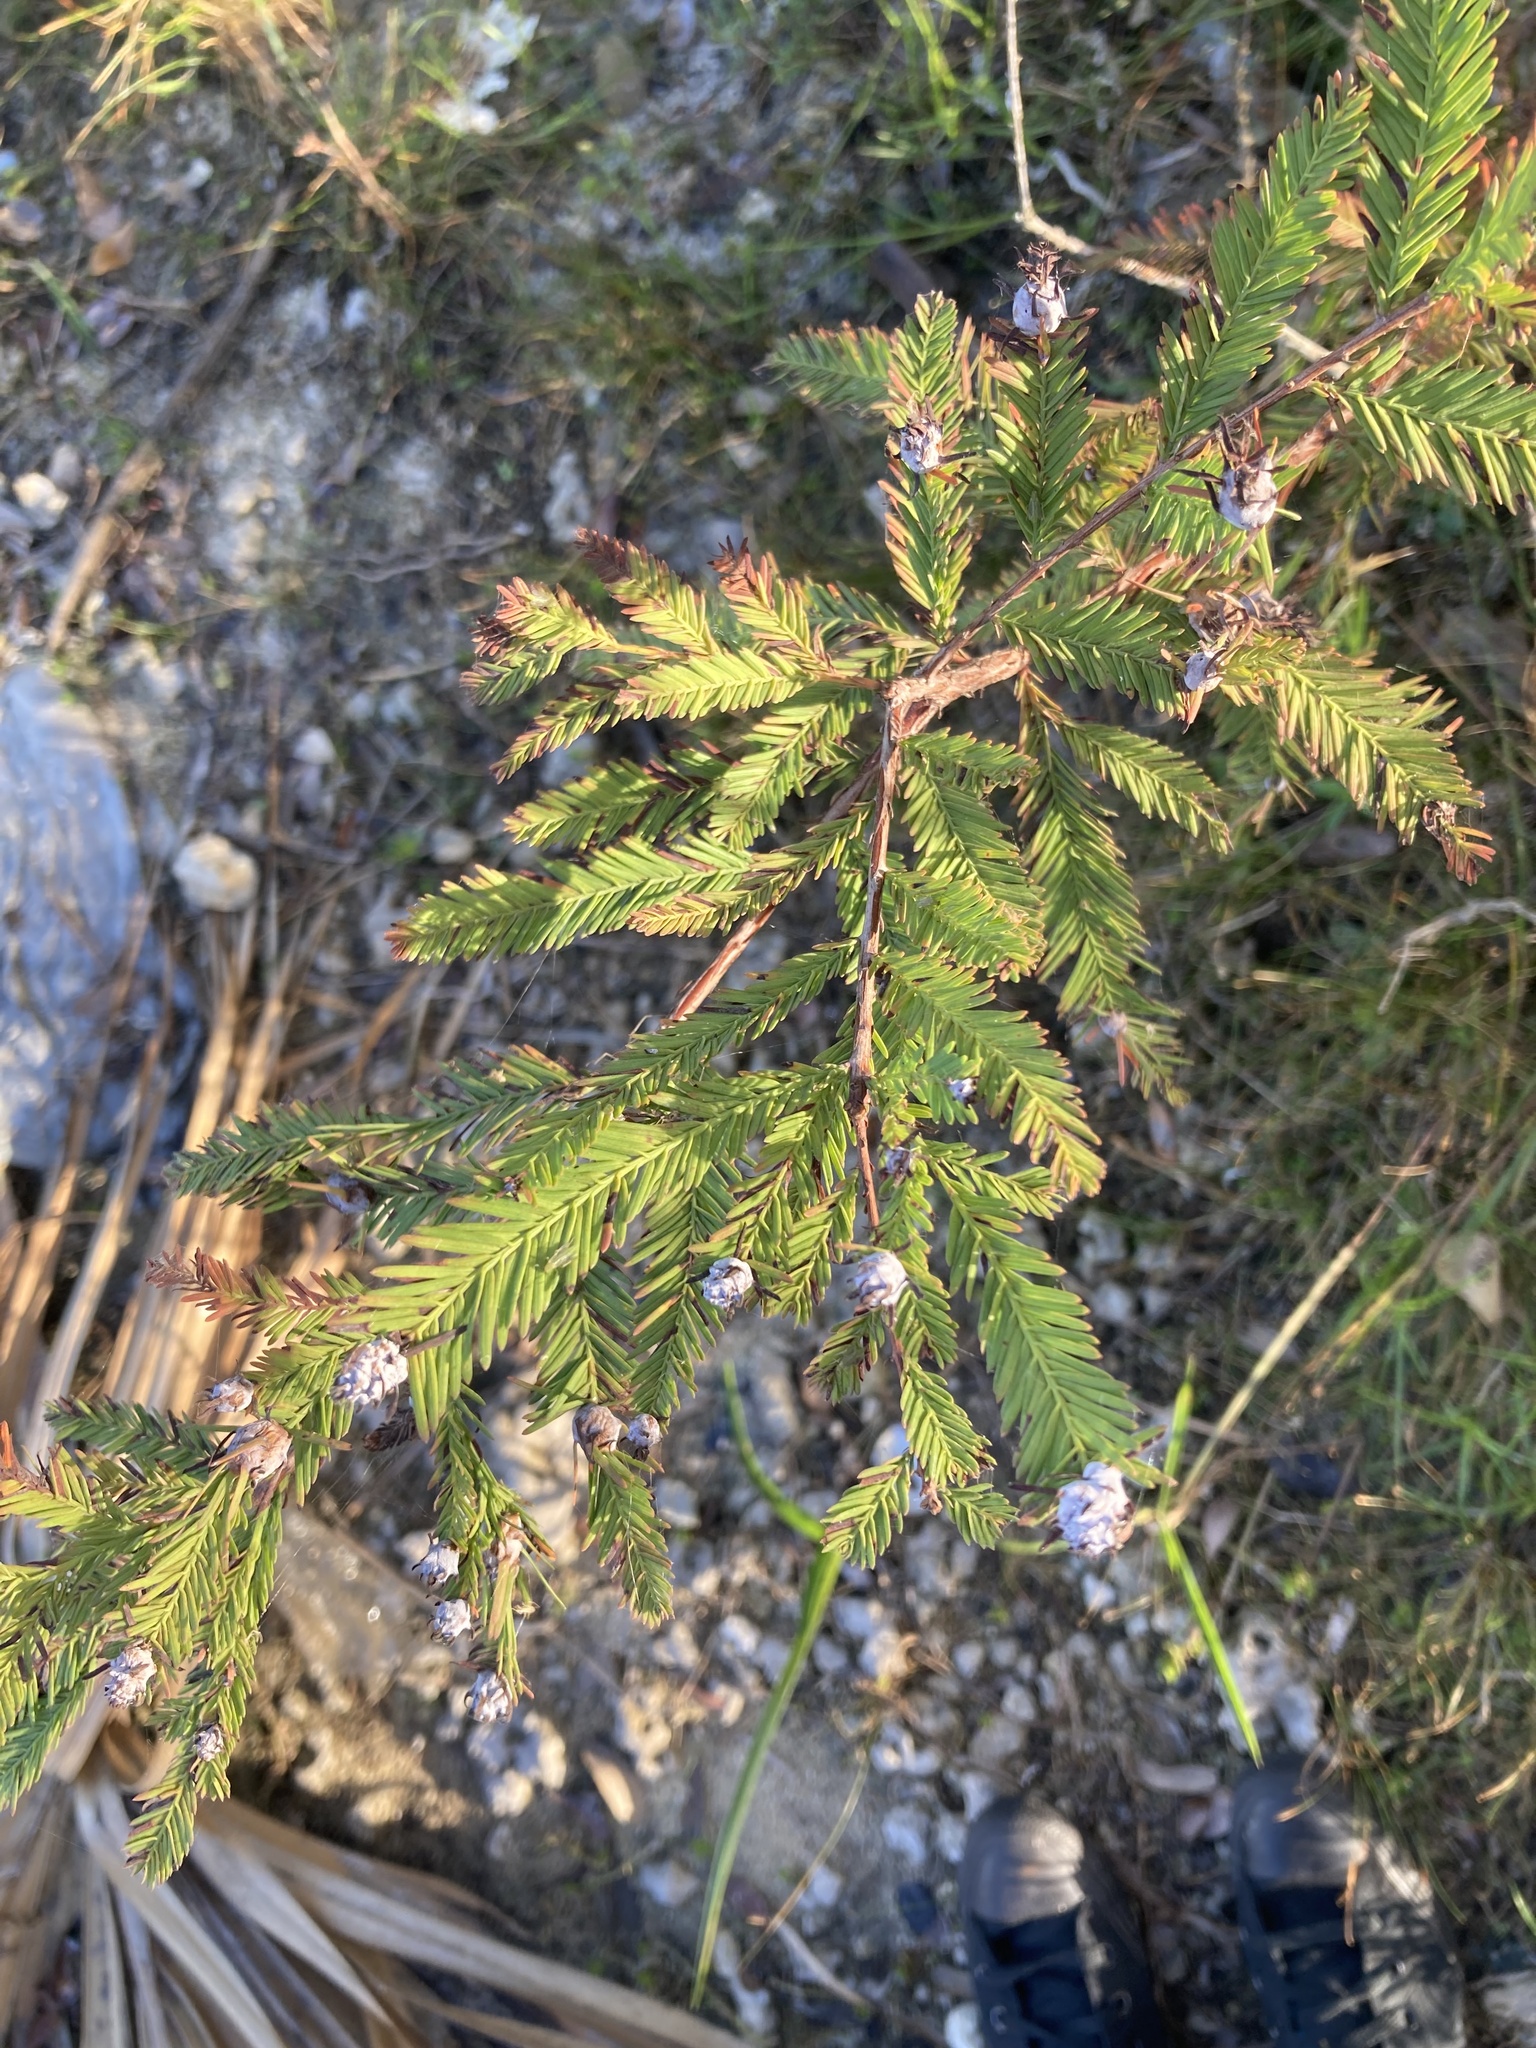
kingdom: Plantae
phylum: Tracheophyta
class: Pinopsida
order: Pinales
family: Cupressaceae
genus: Taxodium
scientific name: Taxodium distichum
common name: Bald cypress
